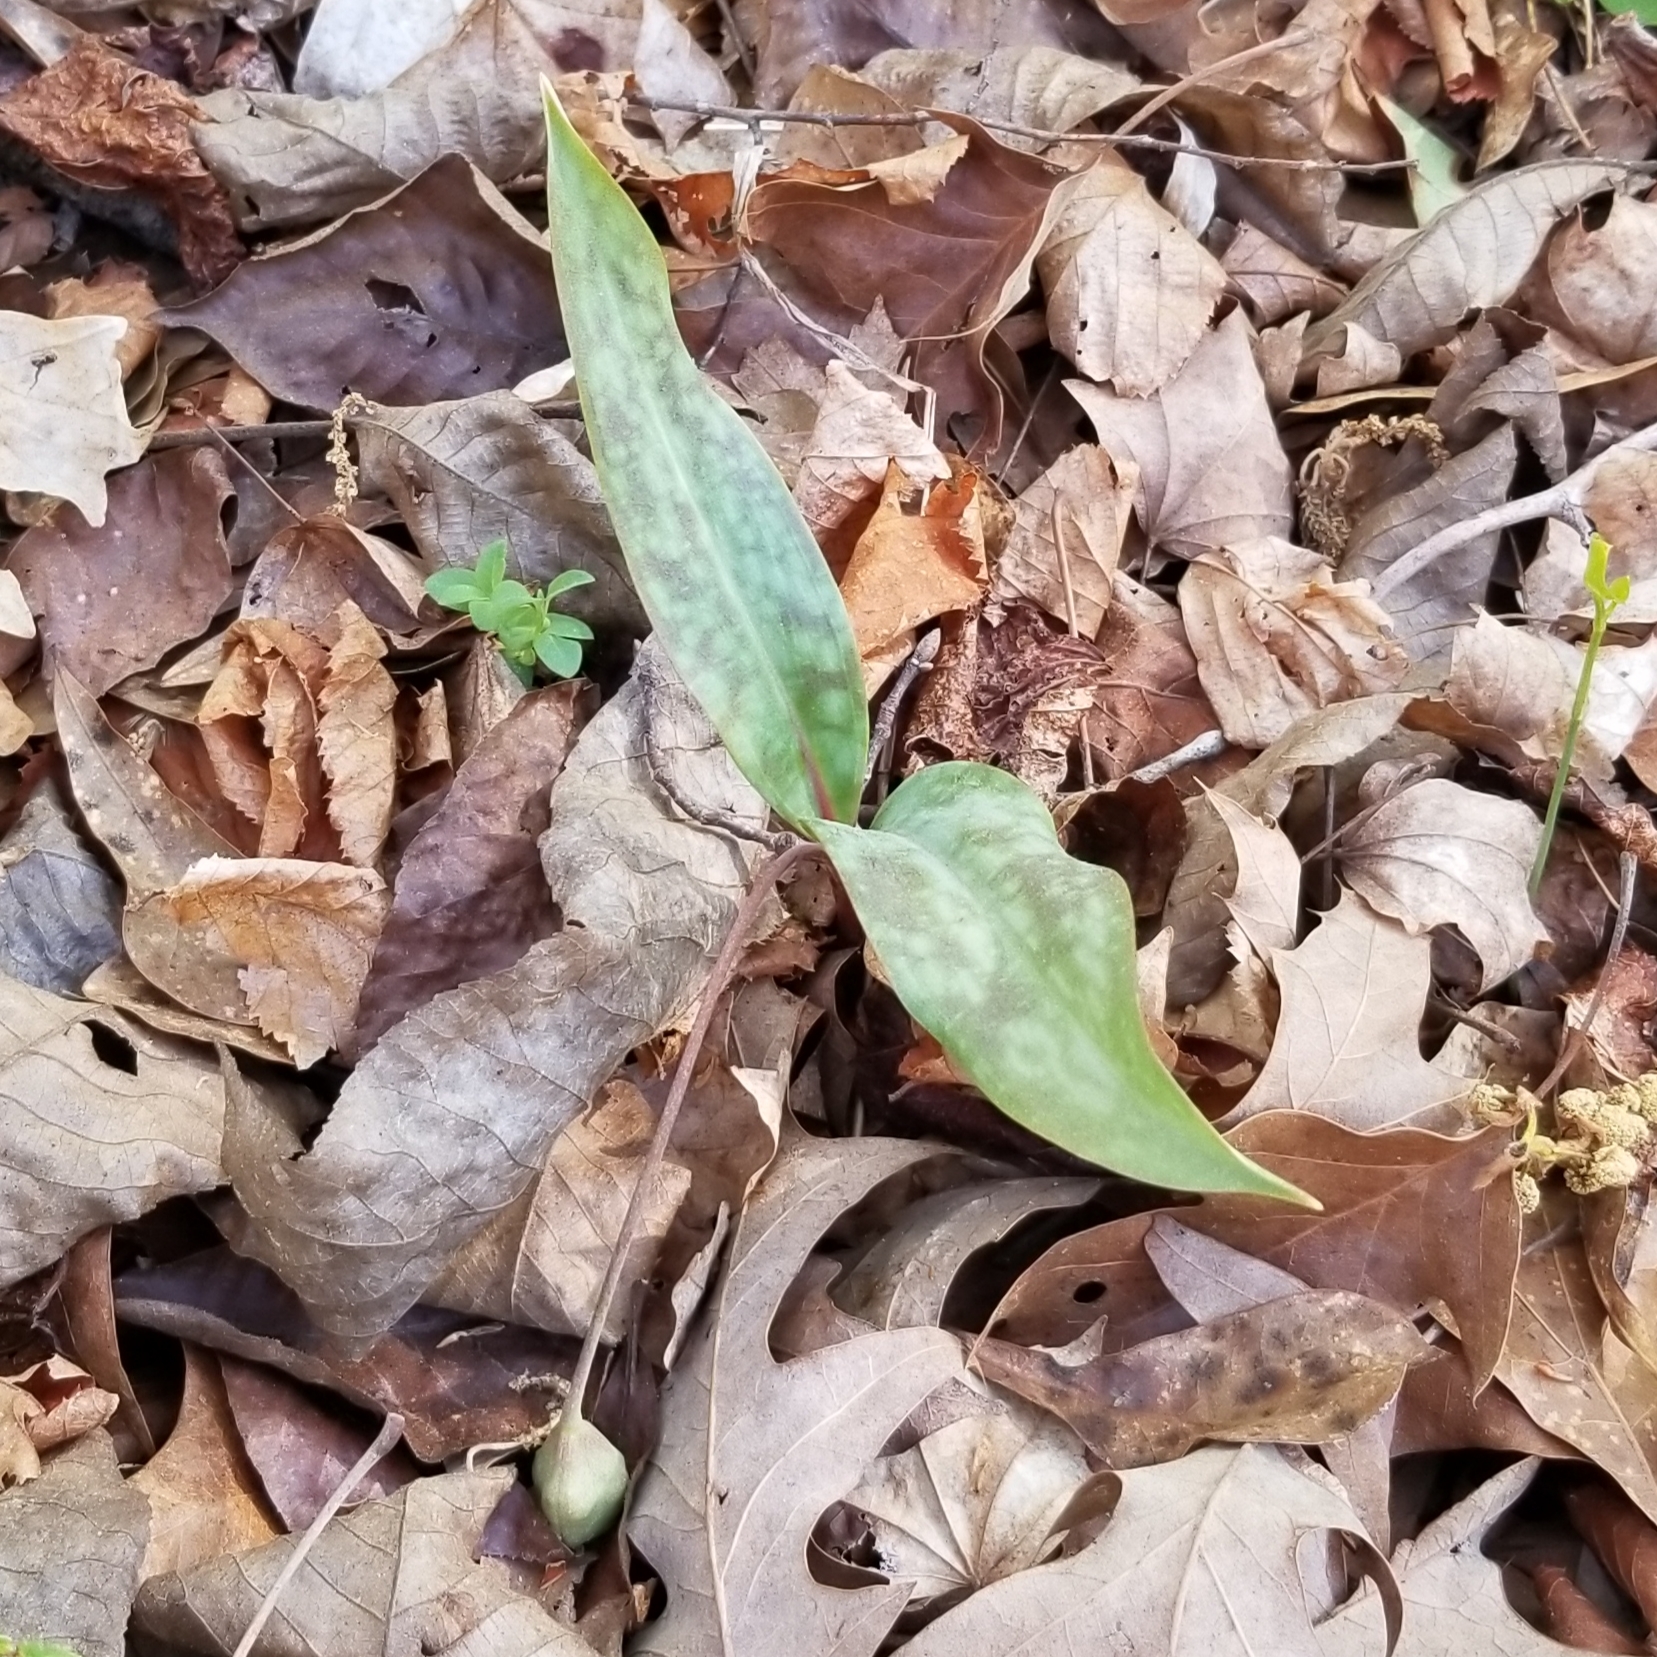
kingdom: Plantae
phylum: Tracheophyta
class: Liliopsida
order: Liliales
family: Liliaceae
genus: Erythronium
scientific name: Erythronium umbilicatum
